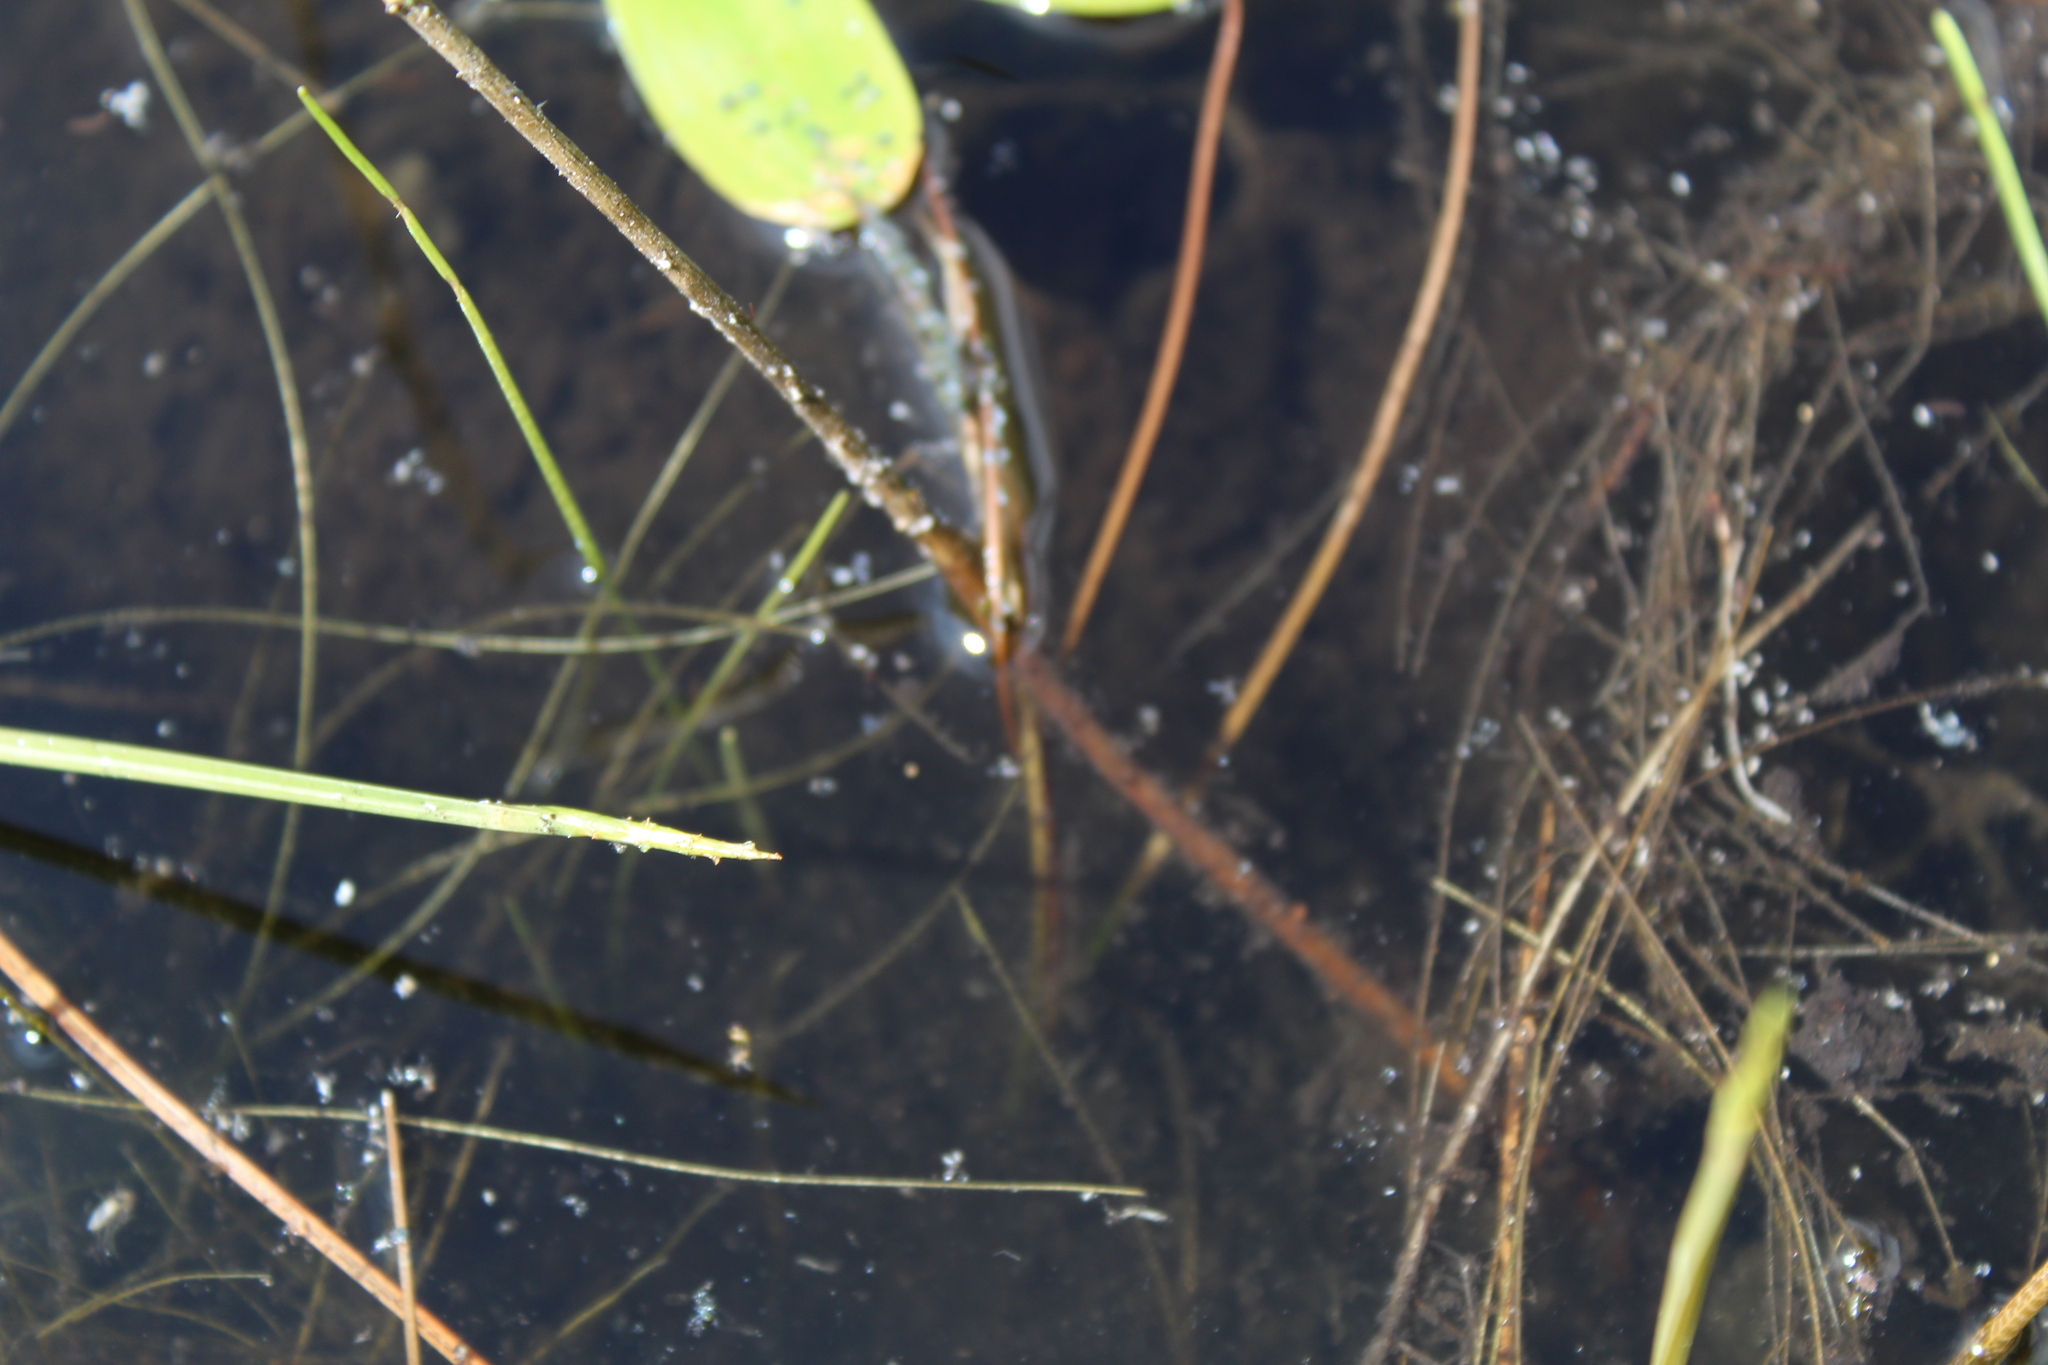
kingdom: Plantae
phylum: Tracheophyta
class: Liliopsida
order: Alismatales
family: Potamogetonaceae
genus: Potamogeton
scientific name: Potamogeton oakesianus
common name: Oakes' pondweed
